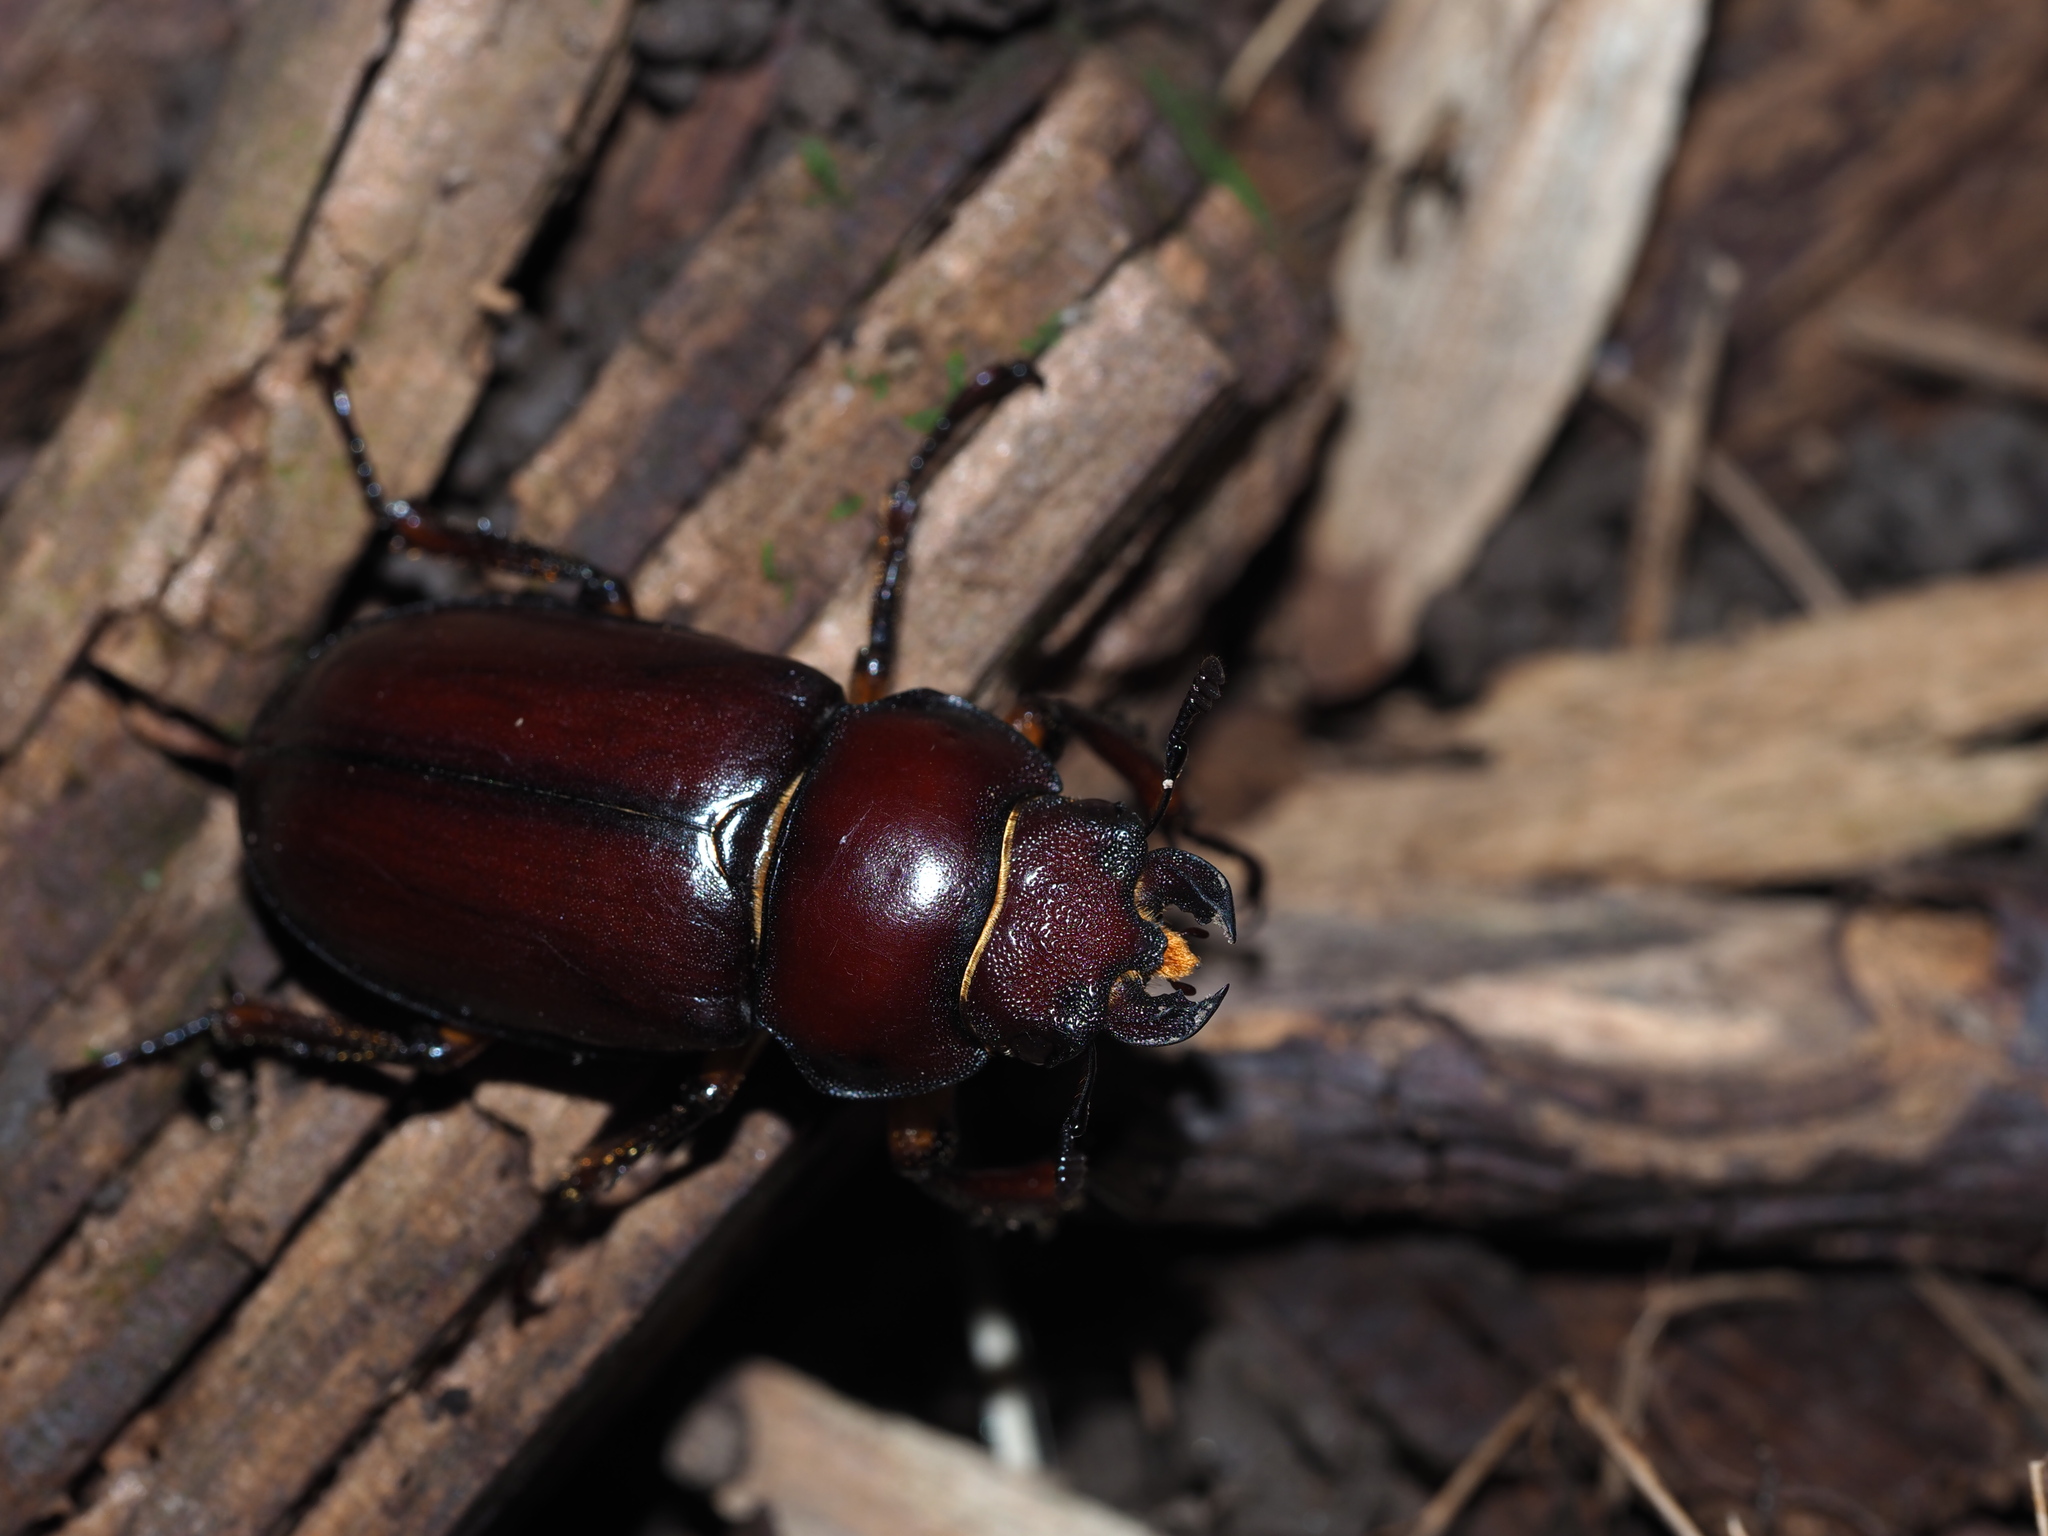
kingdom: Animalia
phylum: Arthropoda
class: Insecta
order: Coleoptera
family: Lucanidae
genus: Lucanus
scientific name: Lucanus capreolus
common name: Stag beetle
